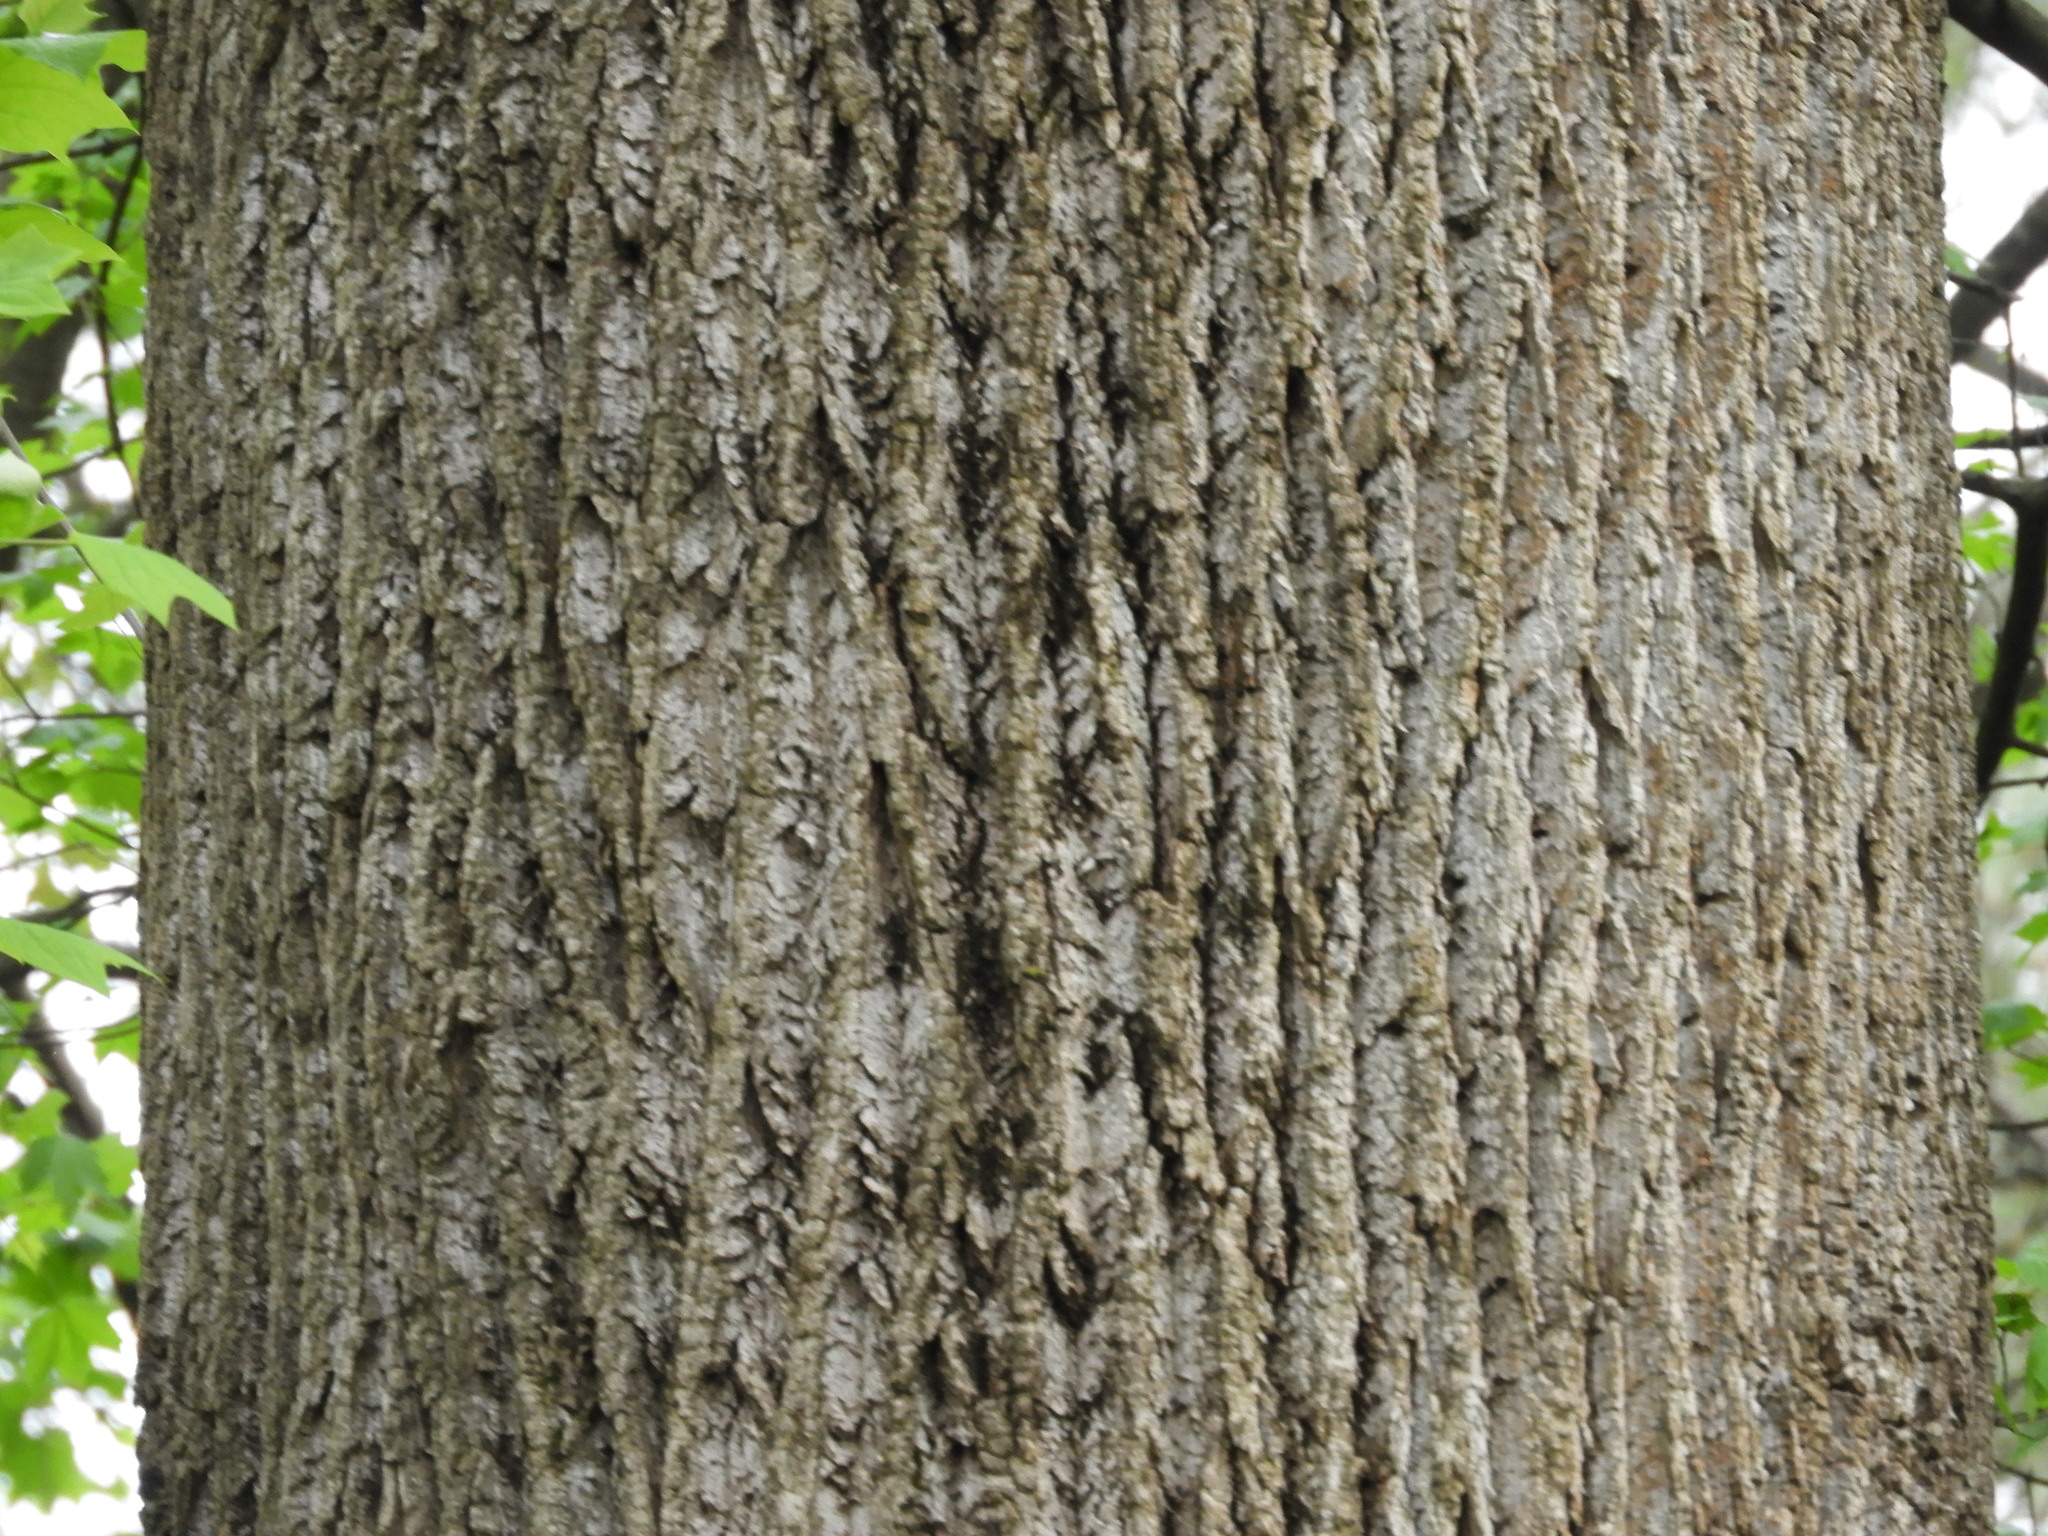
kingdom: Plantae
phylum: Tracheophyta
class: Magnoliopsida
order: Magnoliales
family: Magnoliaceae
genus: Liriodendron
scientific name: Liriodendron tulipifera
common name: Tulip tree
